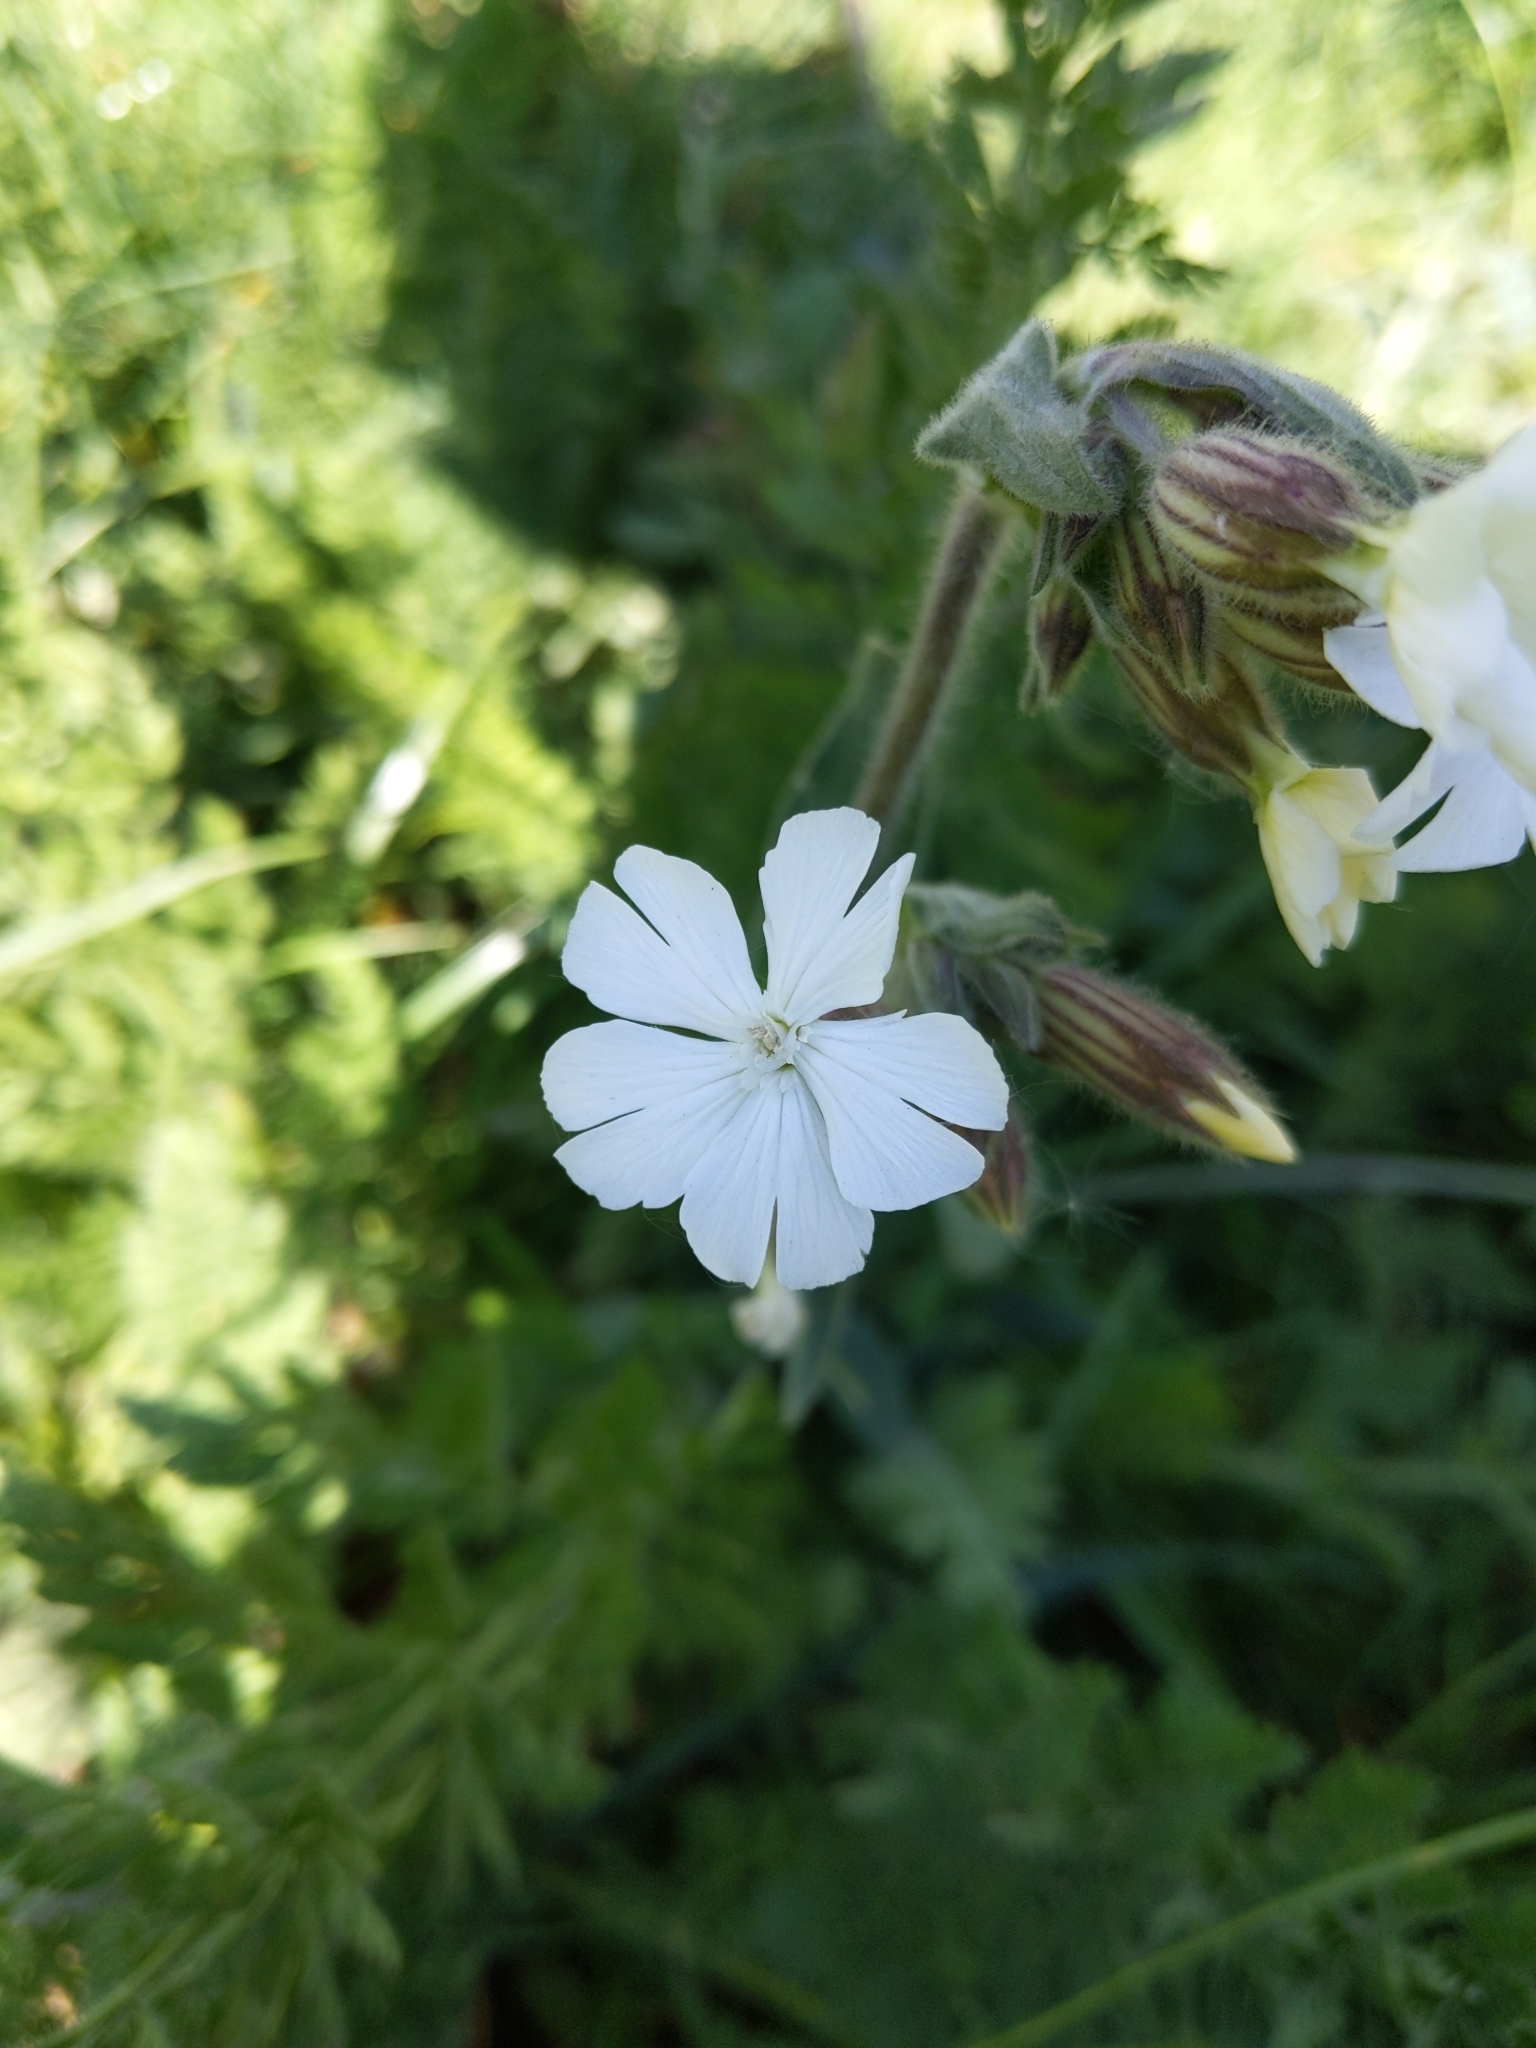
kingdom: Plantae
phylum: Tracheophyta
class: Magnoliopsida
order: Caryophyllales
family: Caryophyllaceae
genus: Silene
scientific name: Silene latifolia
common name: White campion
